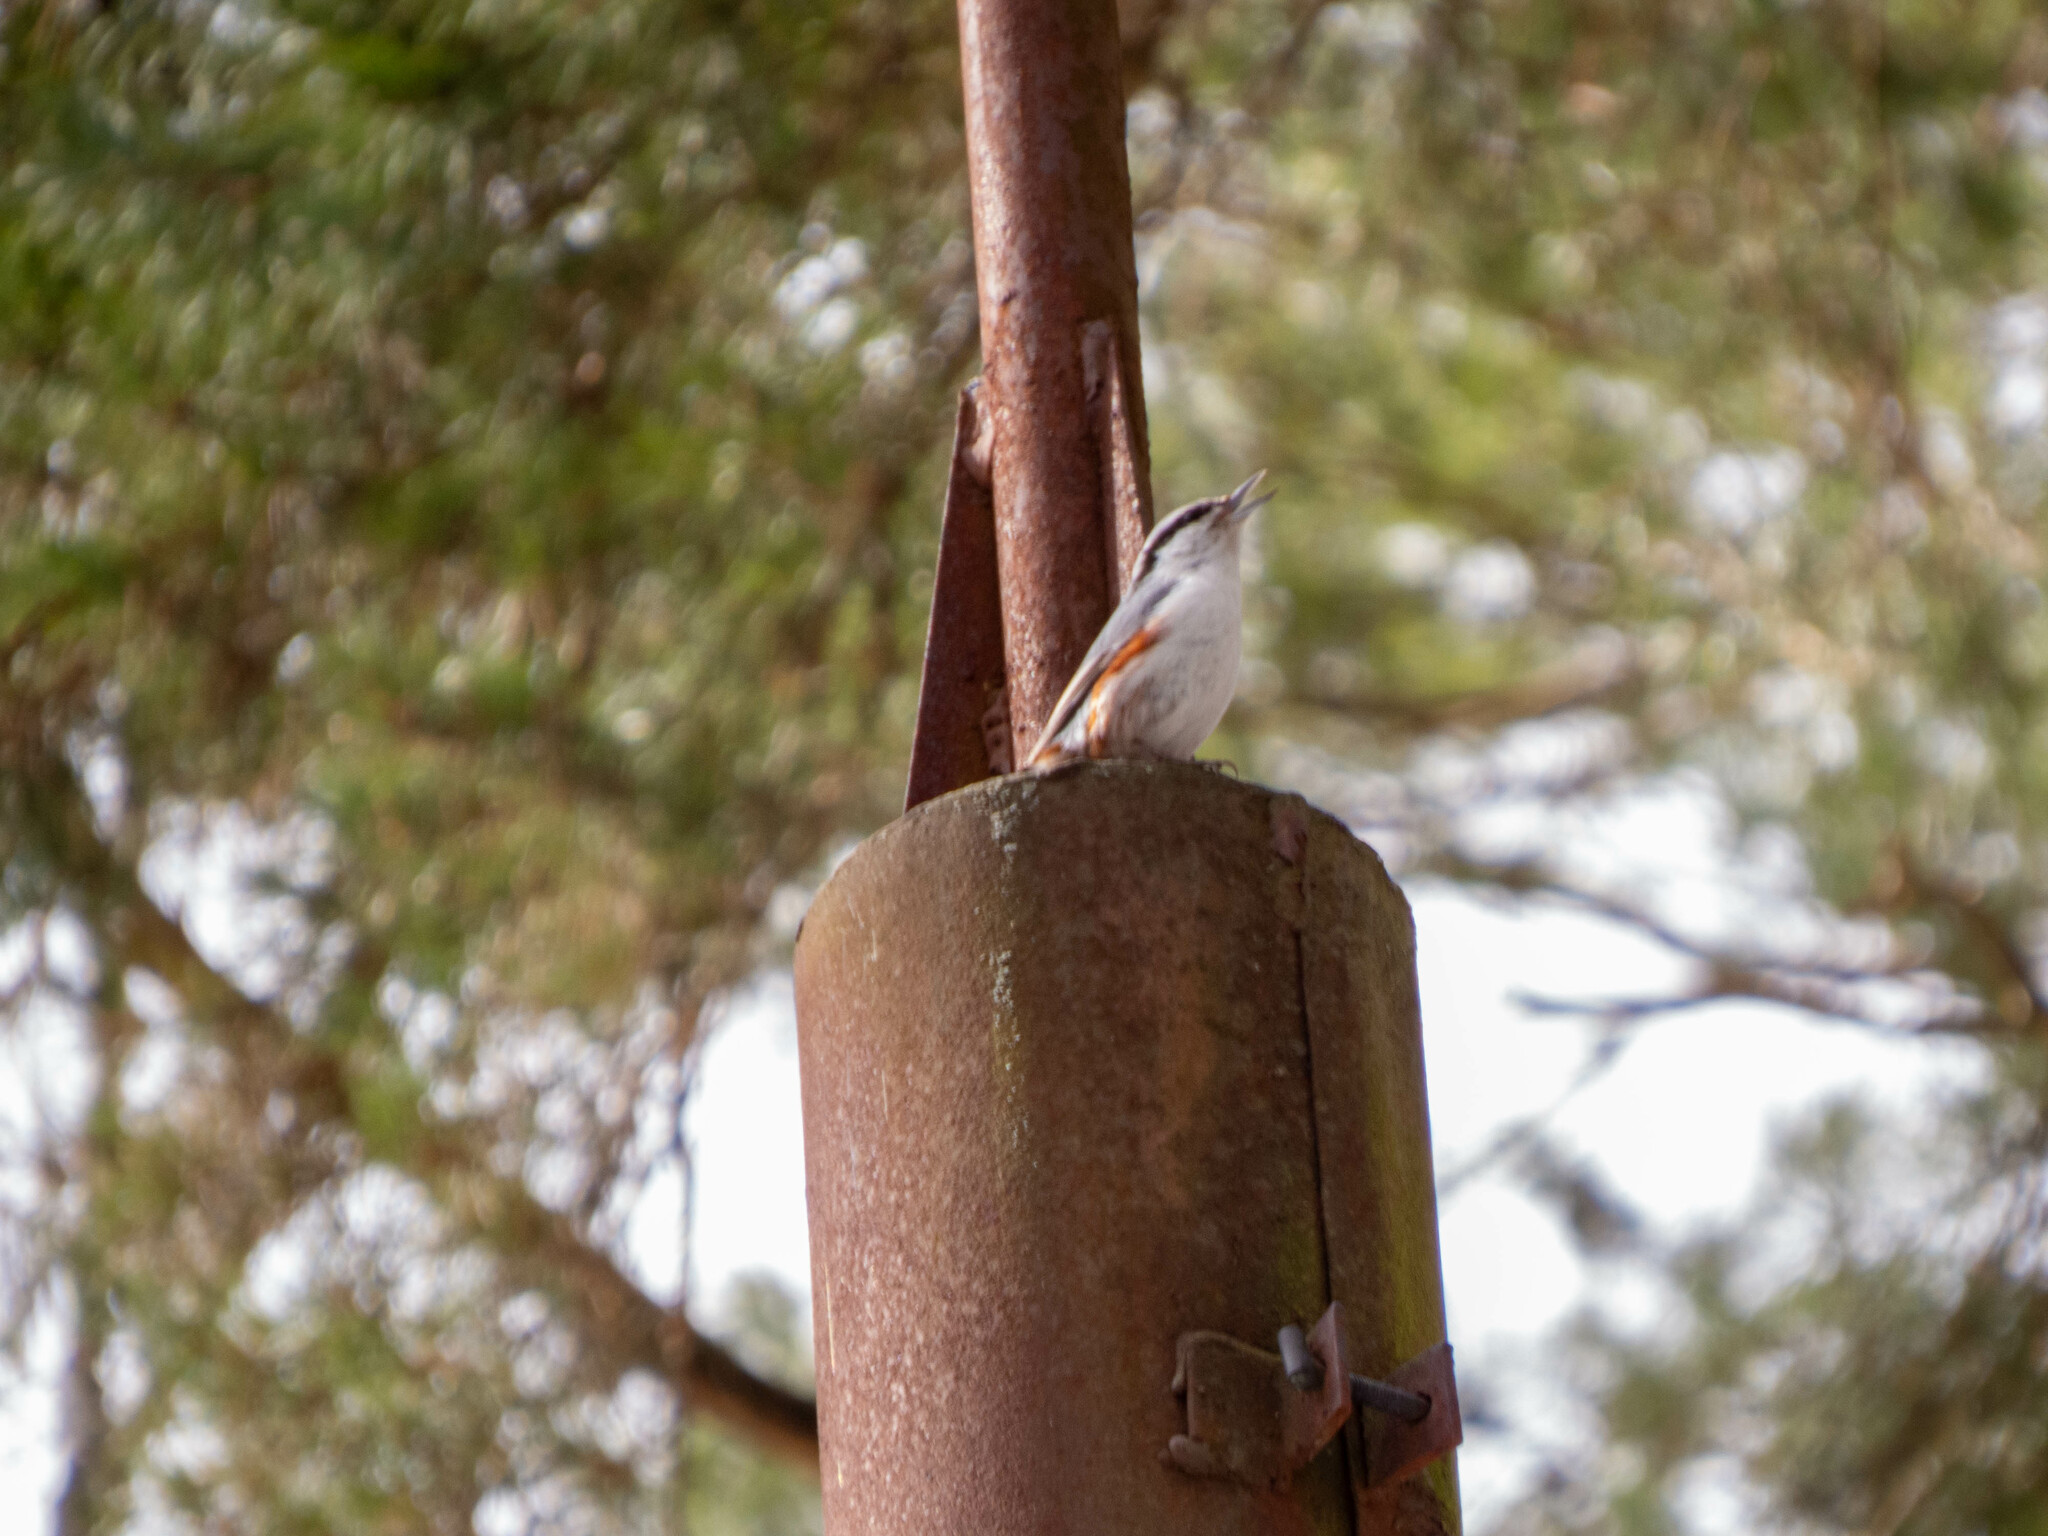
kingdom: Animalia
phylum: Chordata
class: Aves
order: Passeriformes
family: Sittidae
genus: Sitta
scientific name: Sitta europaea
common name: Eurasian nuthatch
